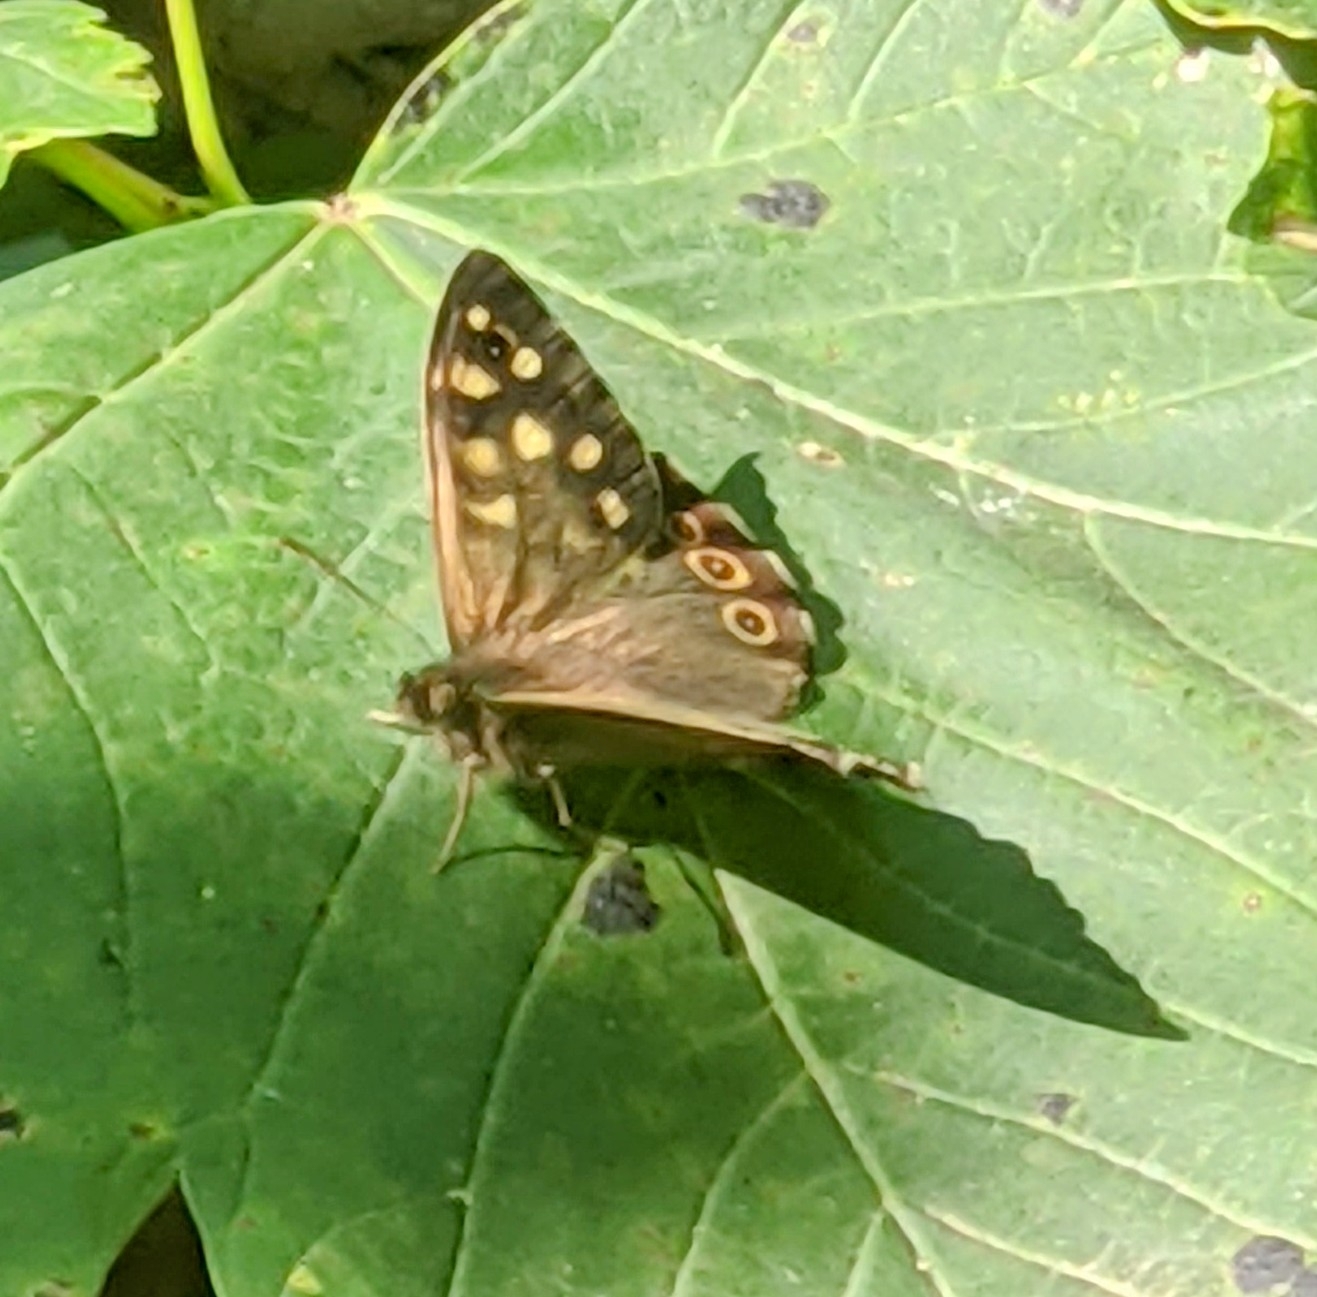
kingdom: Animalia
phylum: Arthropoda
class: Insecta
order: Lepidoptera
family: Nymphalidae
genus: Pararge
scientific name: Pararge aegeria
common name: Speckled wood
